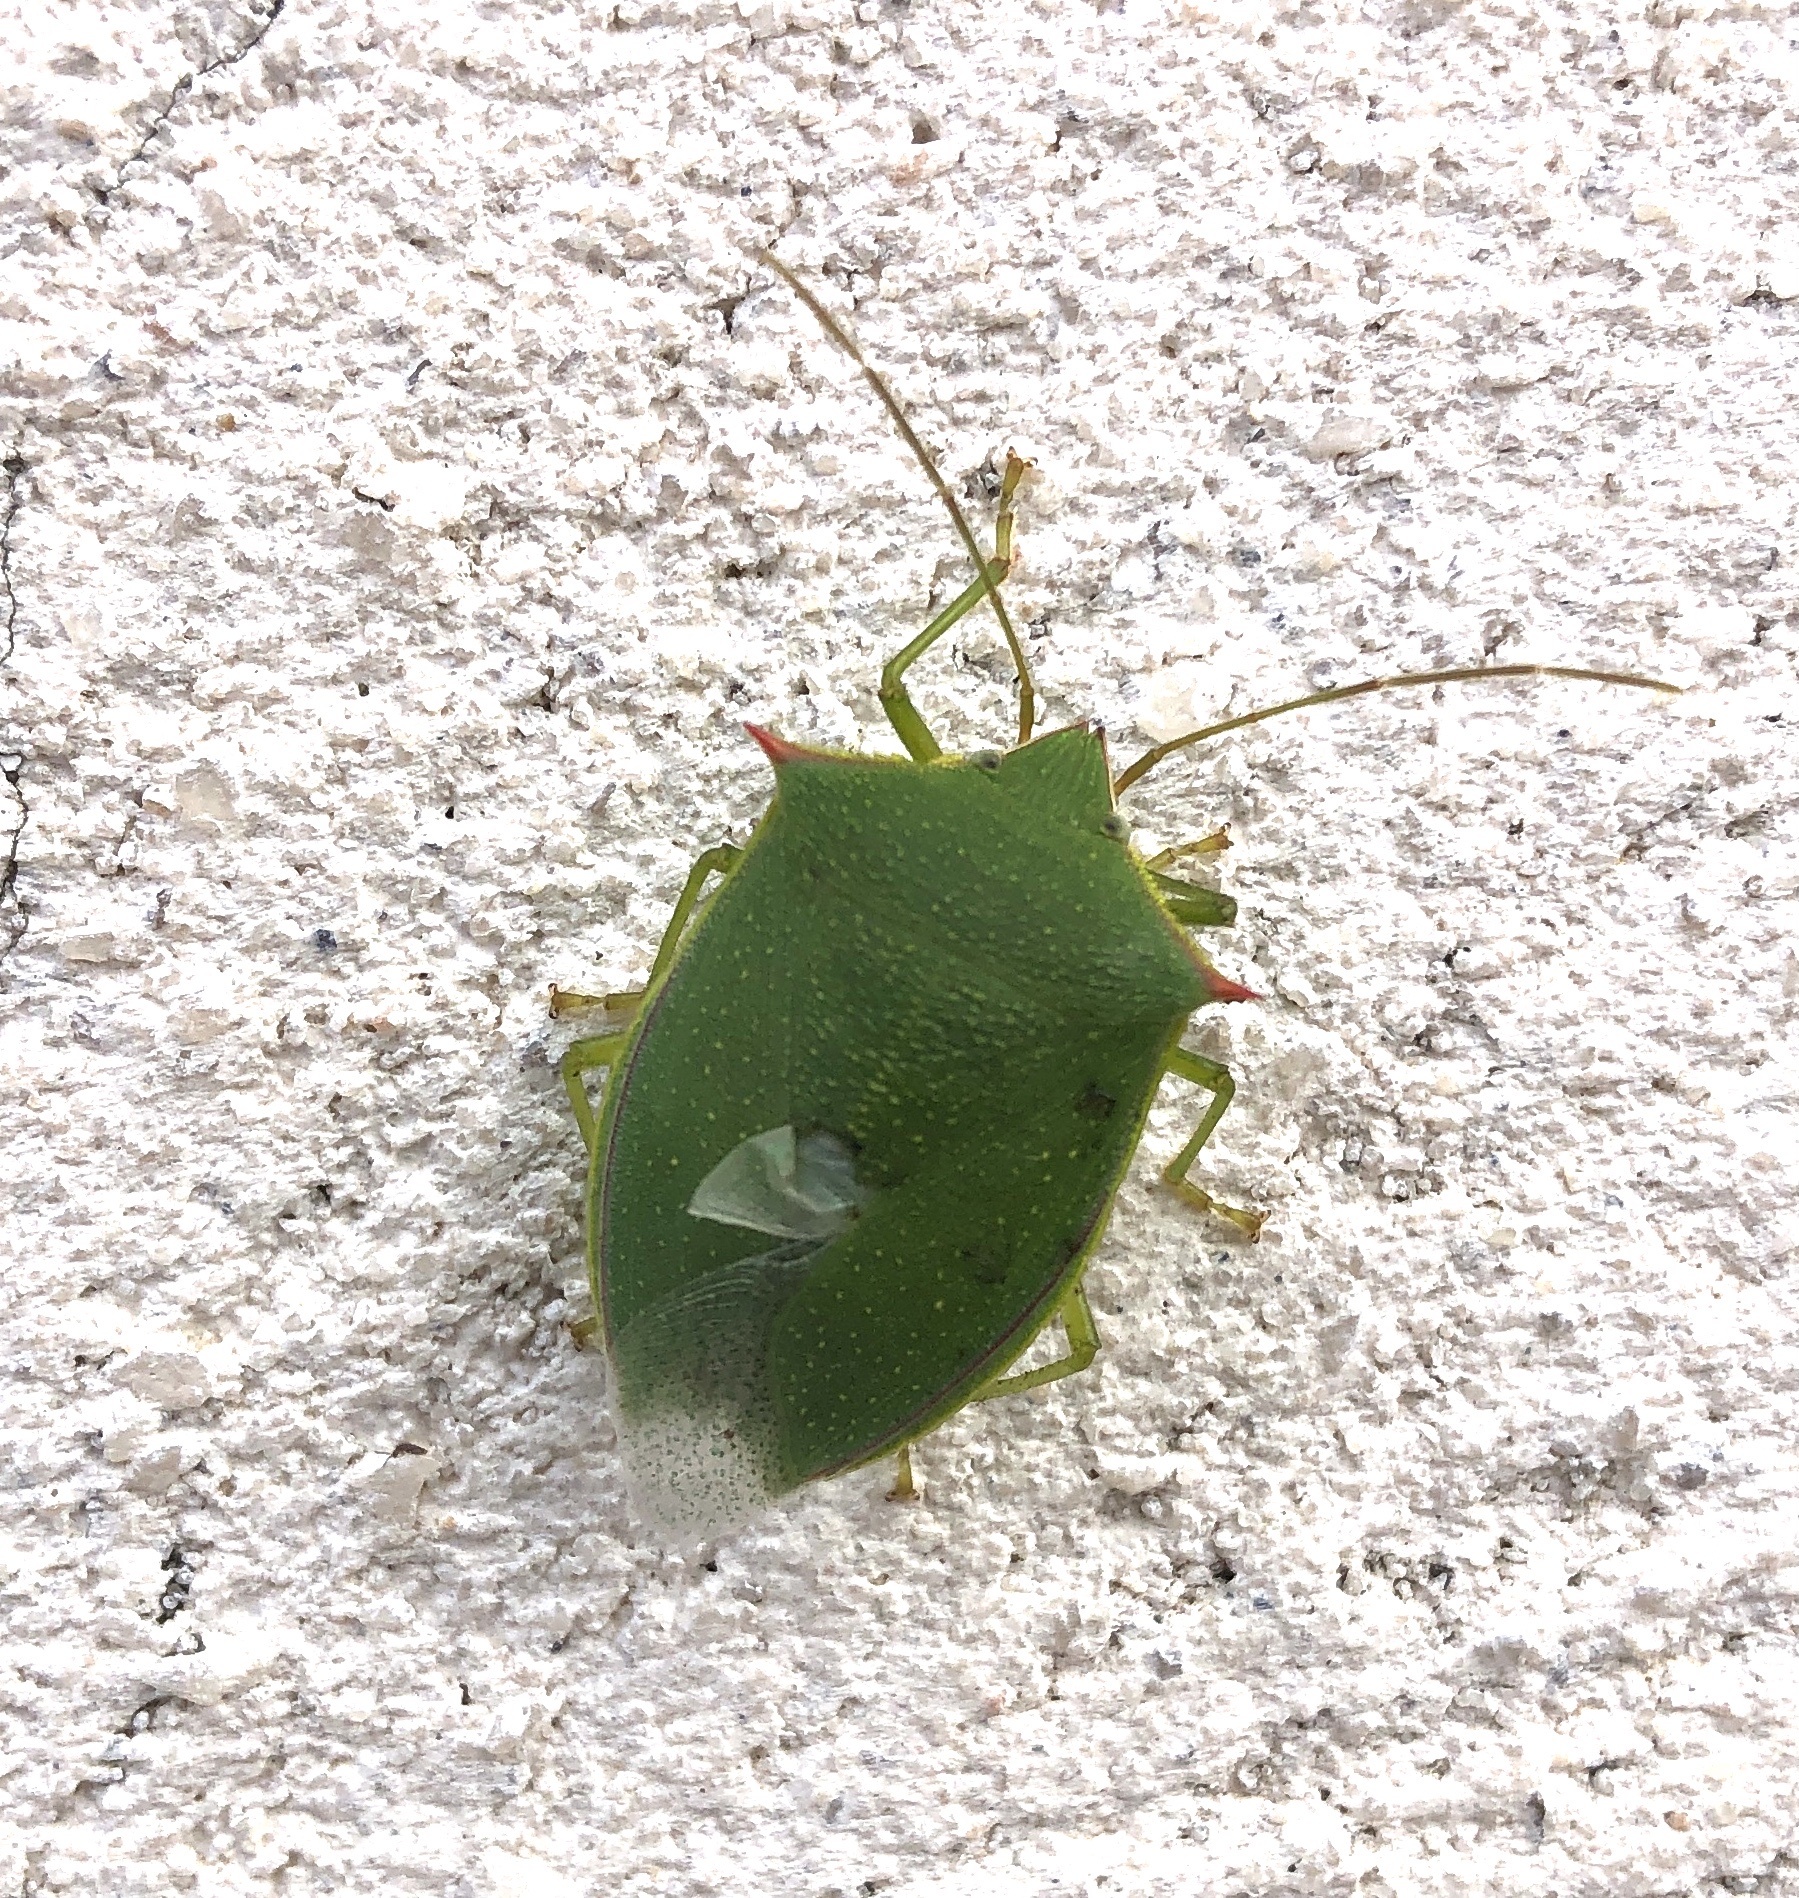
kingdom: Animalia
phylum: Arthropoda
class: Insecta
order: Hemiptera
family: Pentatomidae
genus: Loxa
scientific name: Loxa flavicollis
